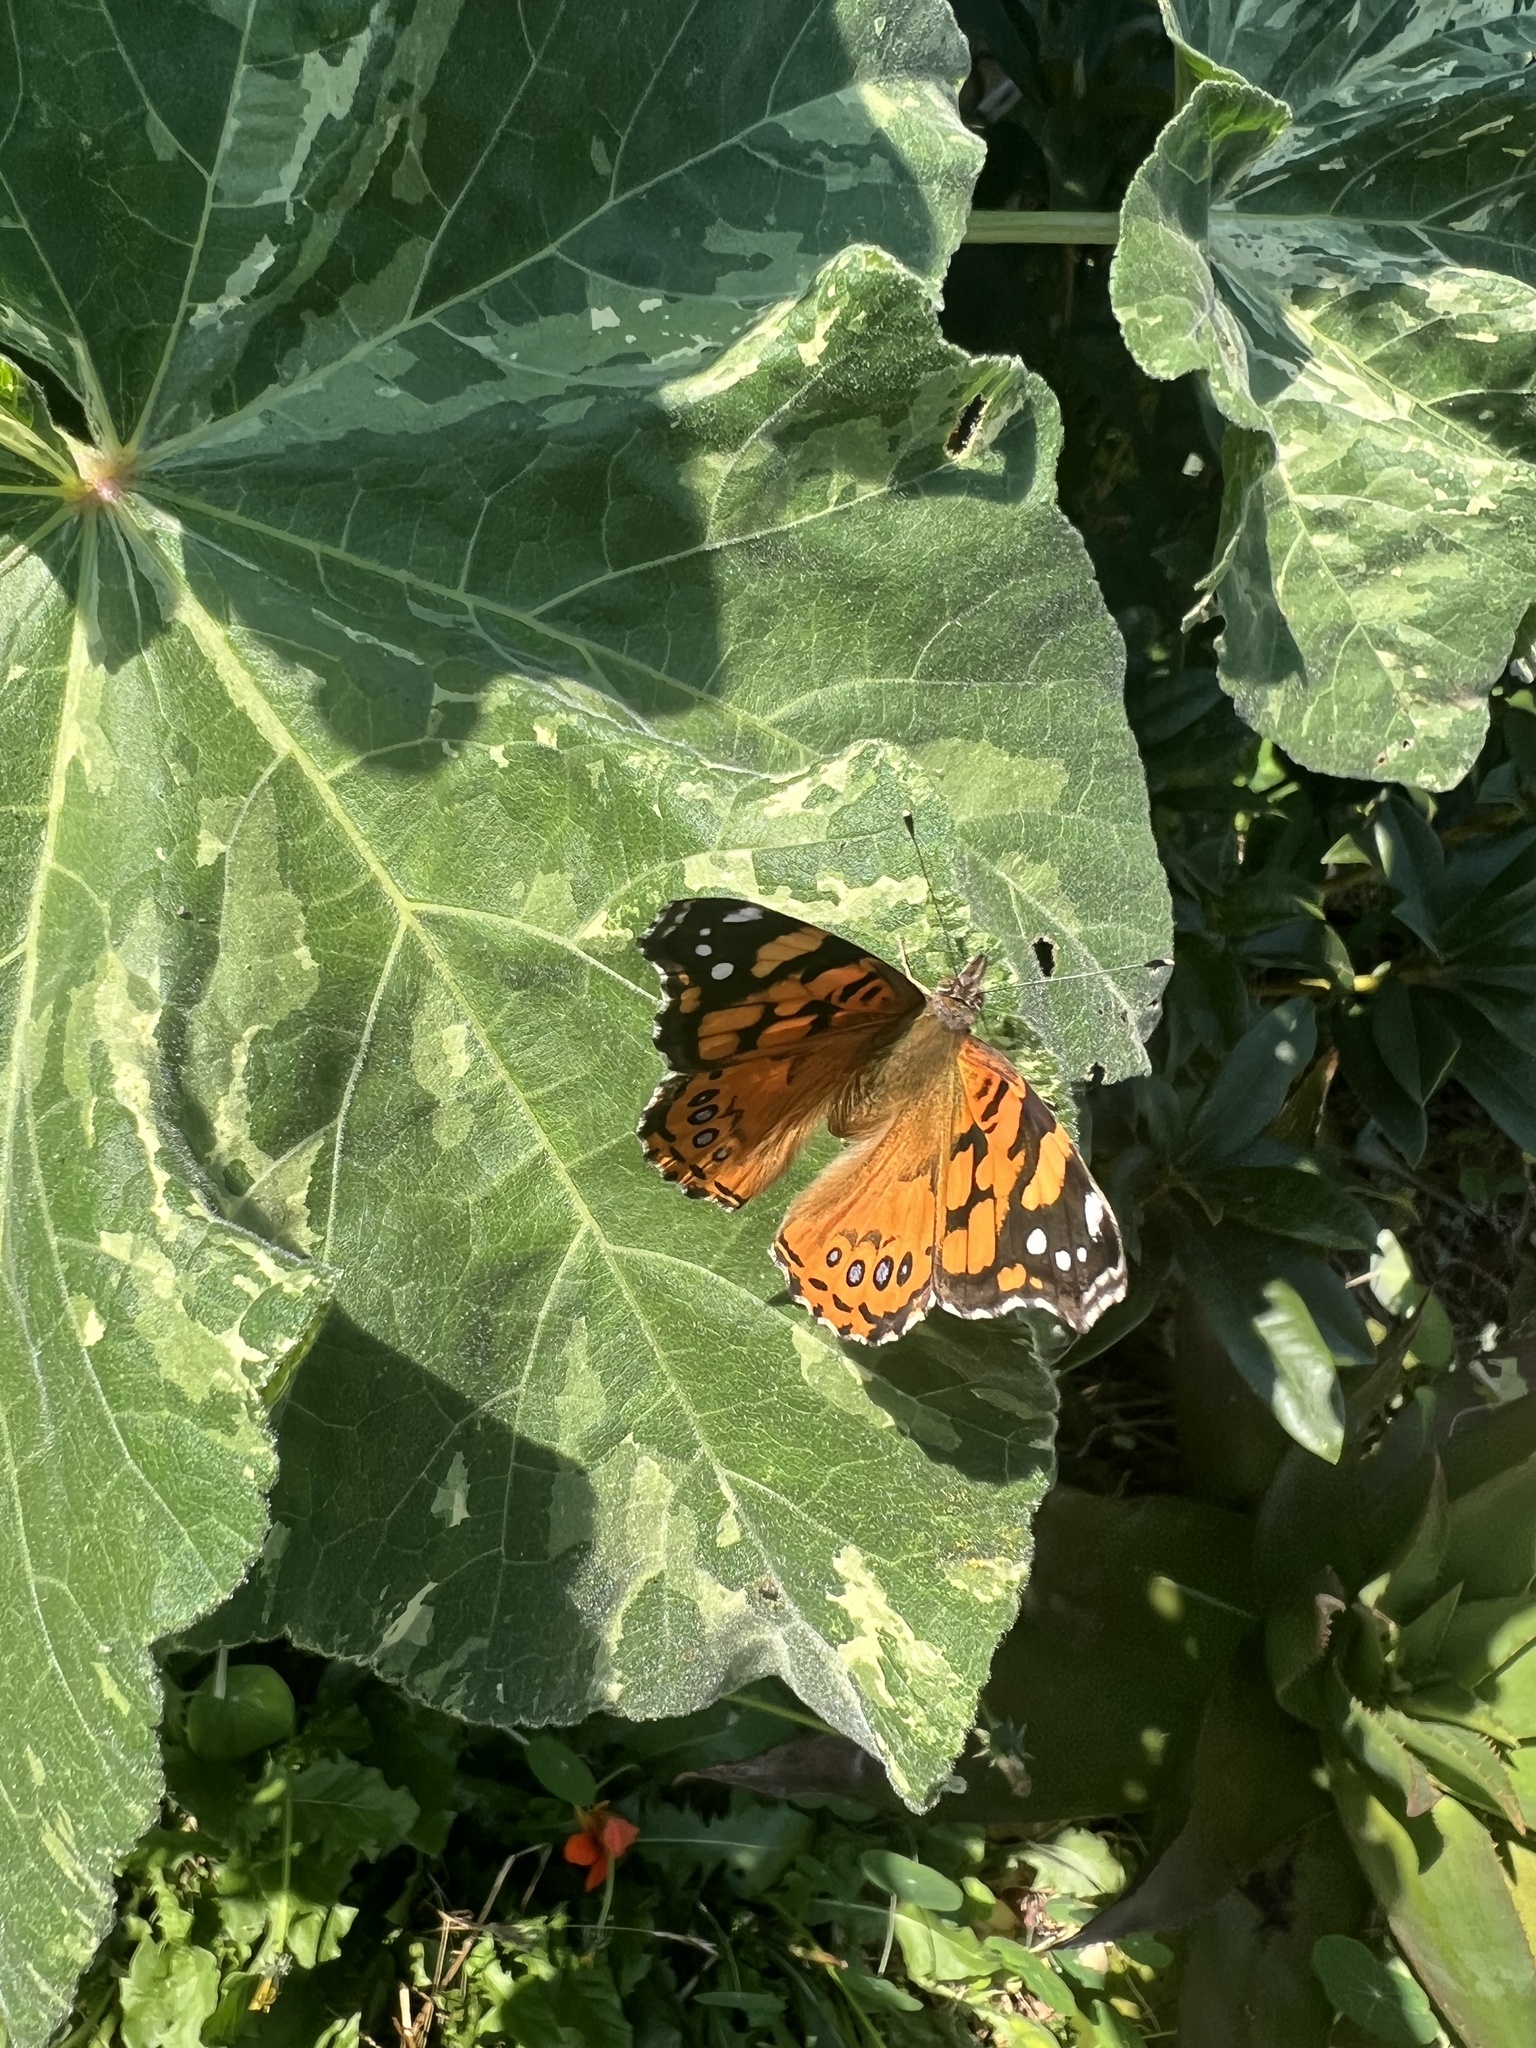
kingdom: Animalia
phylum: Arthropoda
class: Insecta
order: Lepidoptera
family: Nymphalidae
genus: Vanessa
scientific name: Vanessa annabella
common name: West coast lady
